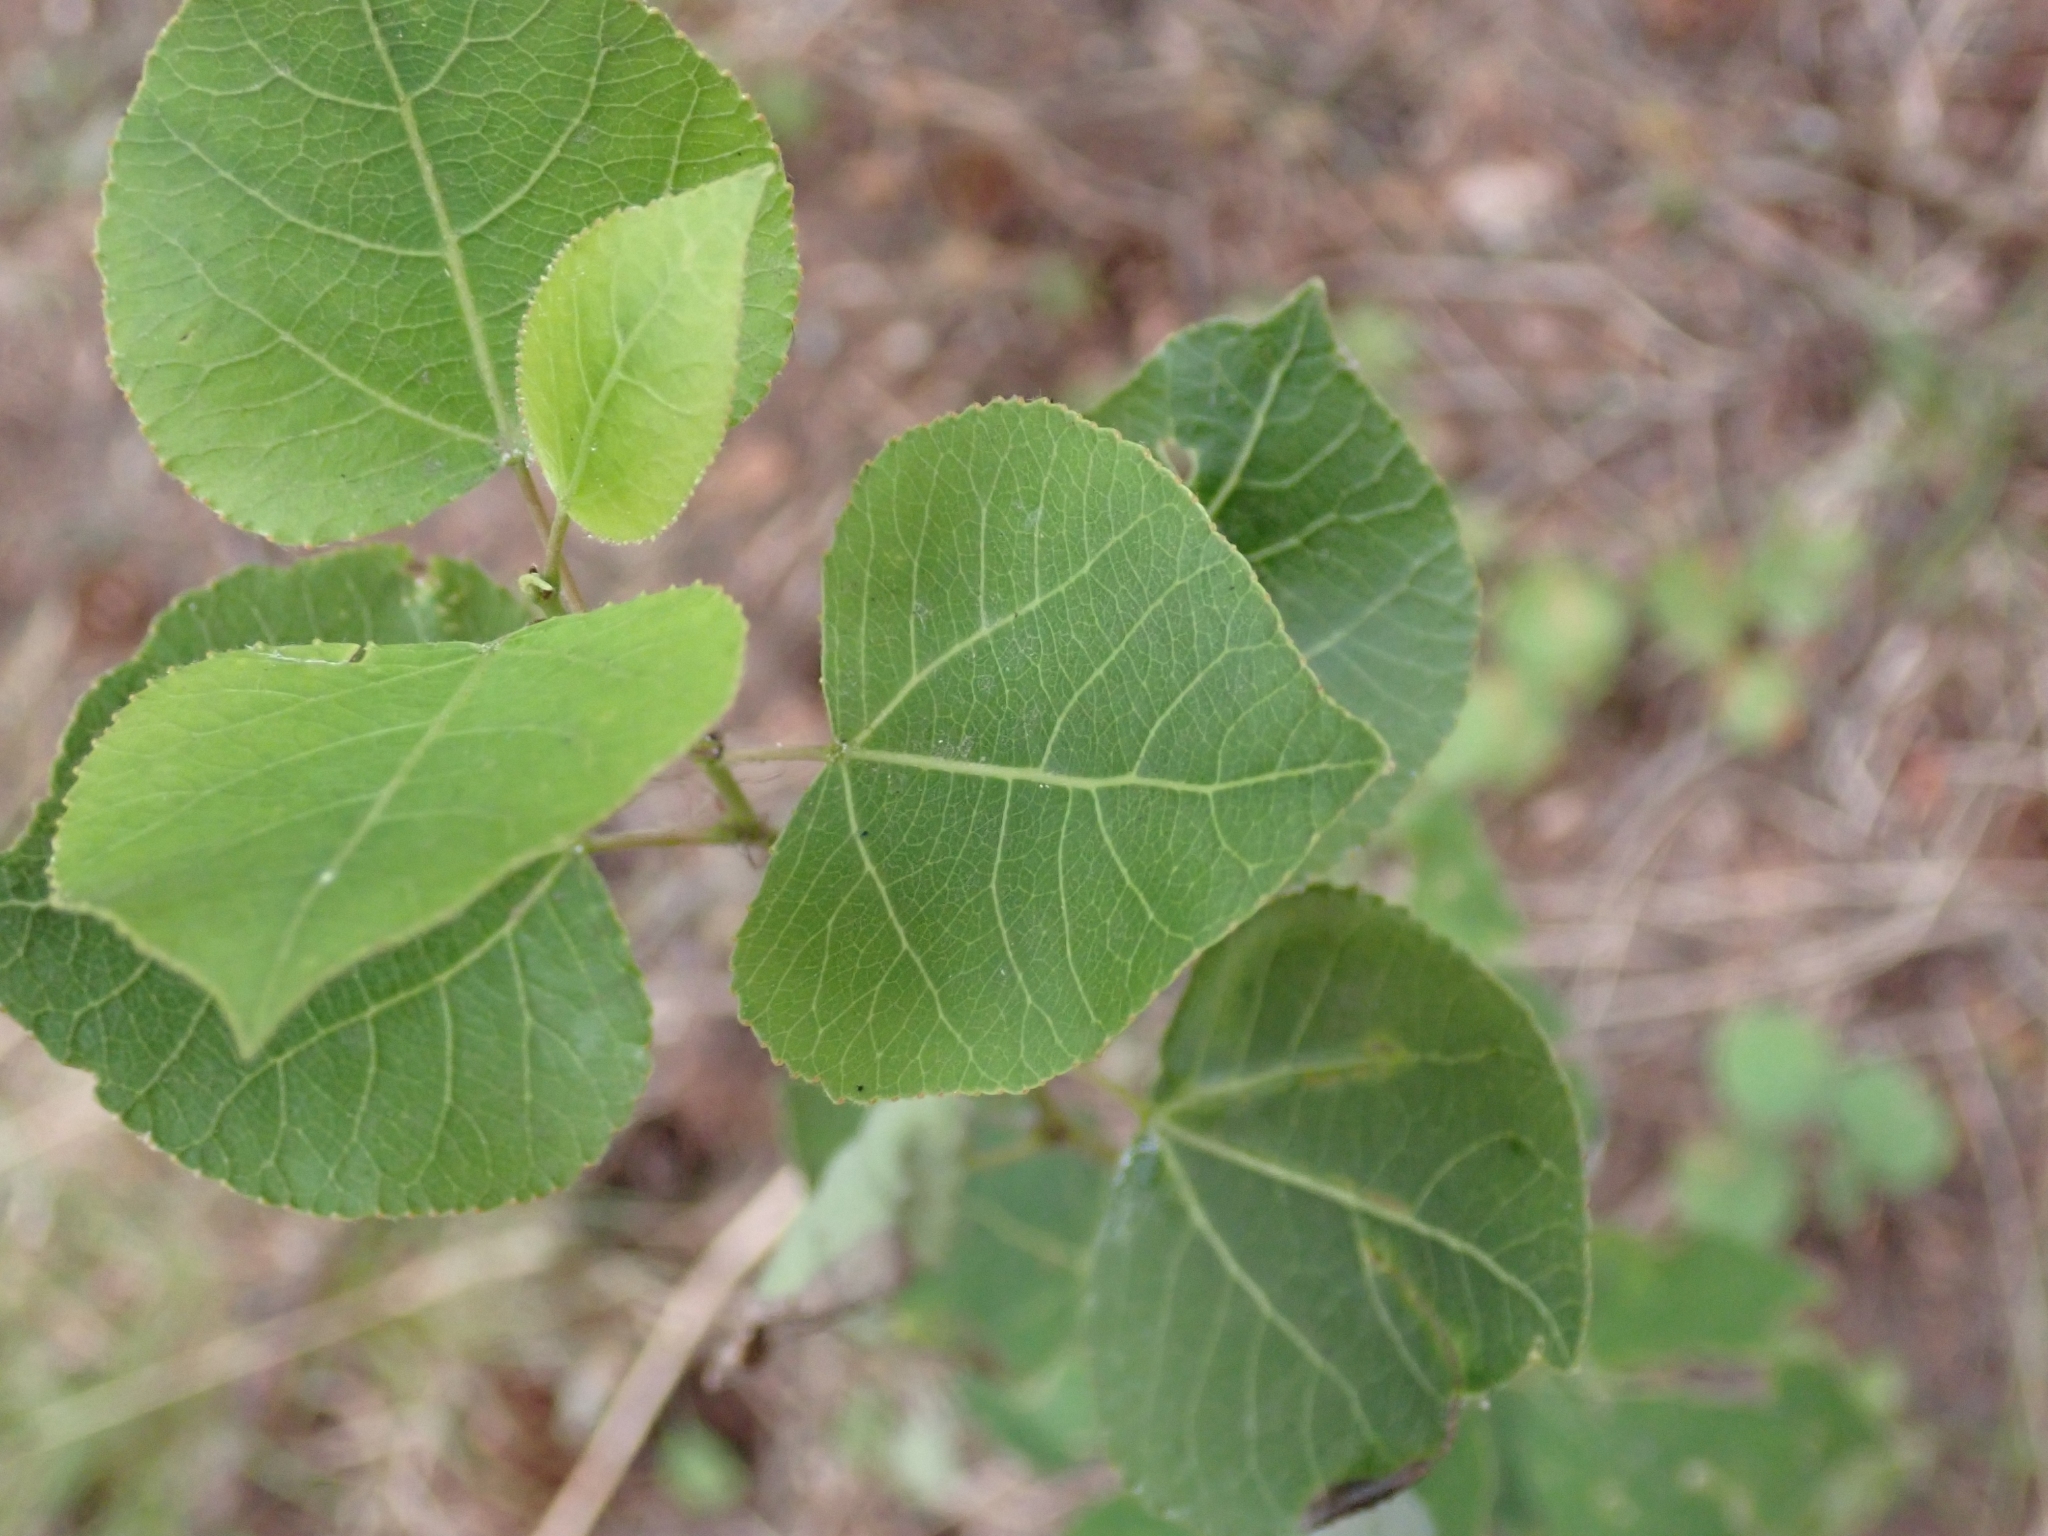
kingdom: Plantae
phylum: Tracheophyta
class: Magnoliopsida
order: Malpighiales
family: Salicaceae
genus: Populus
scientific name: Populus tremuloides
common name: Quaking aspen
